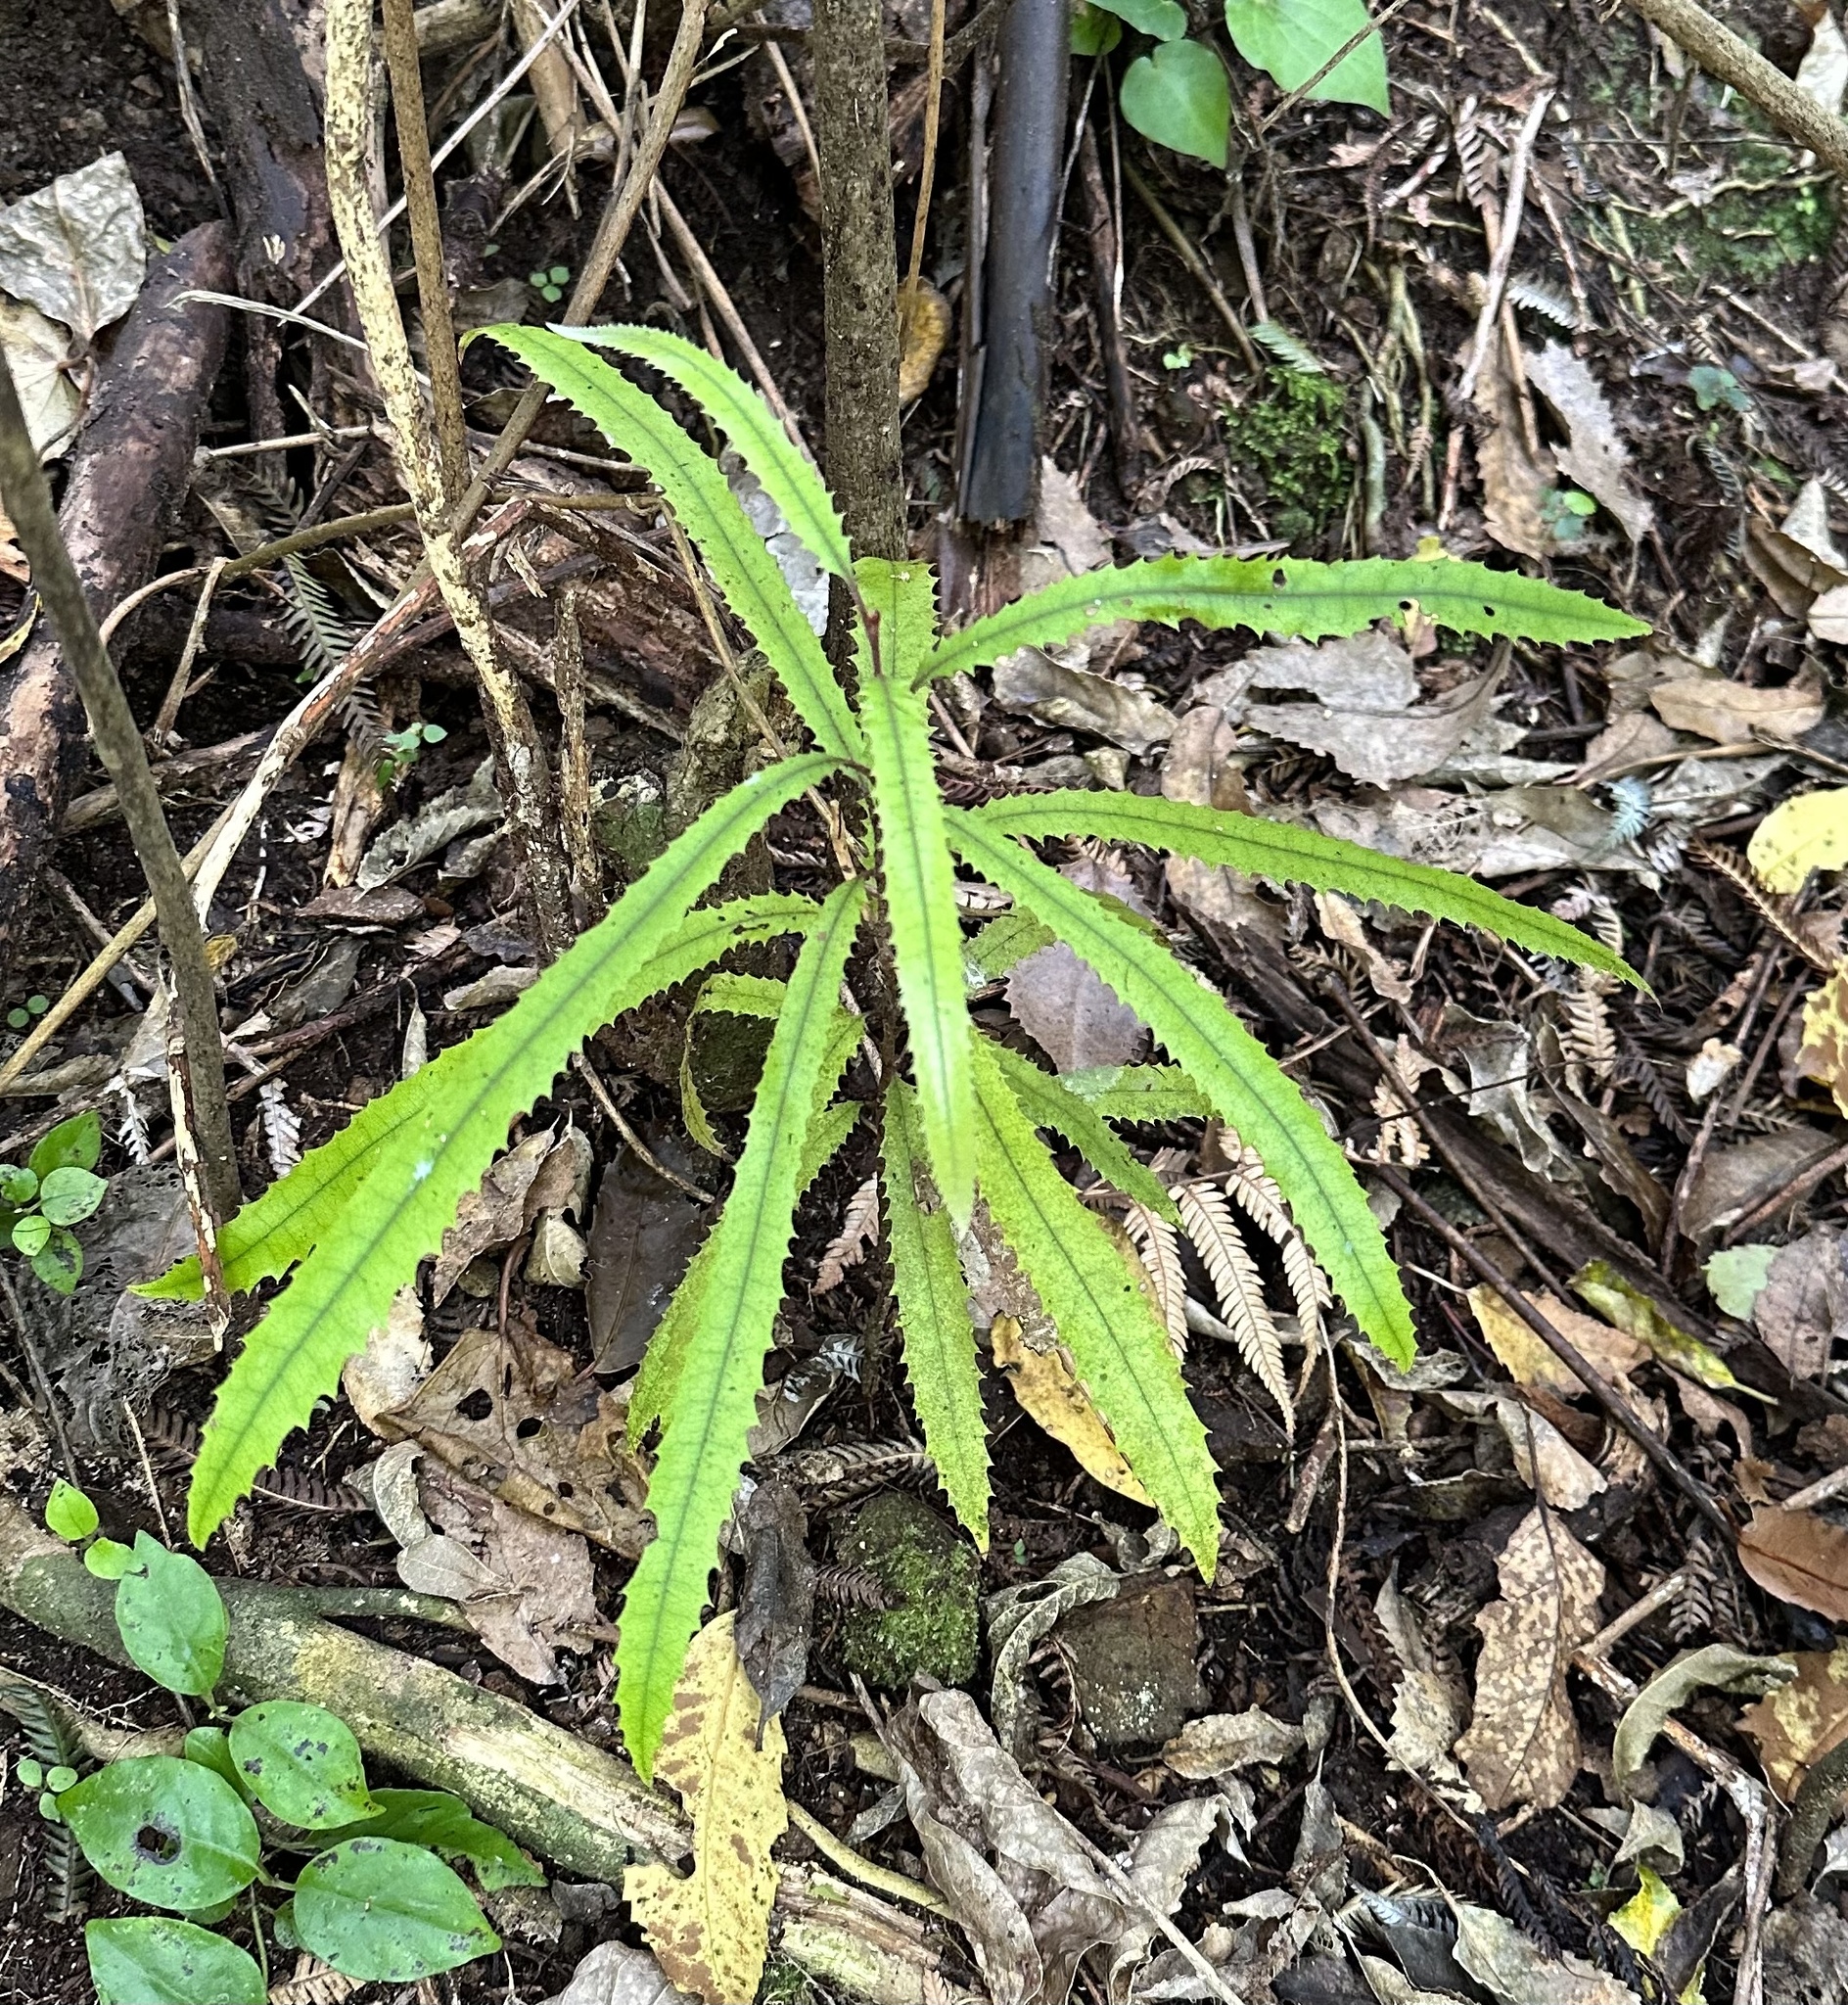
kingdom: Plantae
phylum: Tracheophyta
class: Magnoliopsida
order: Proteales
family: Proteaceae
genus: Knightia
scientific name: Knightia excelsa
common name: New zealand-honeysuckle
